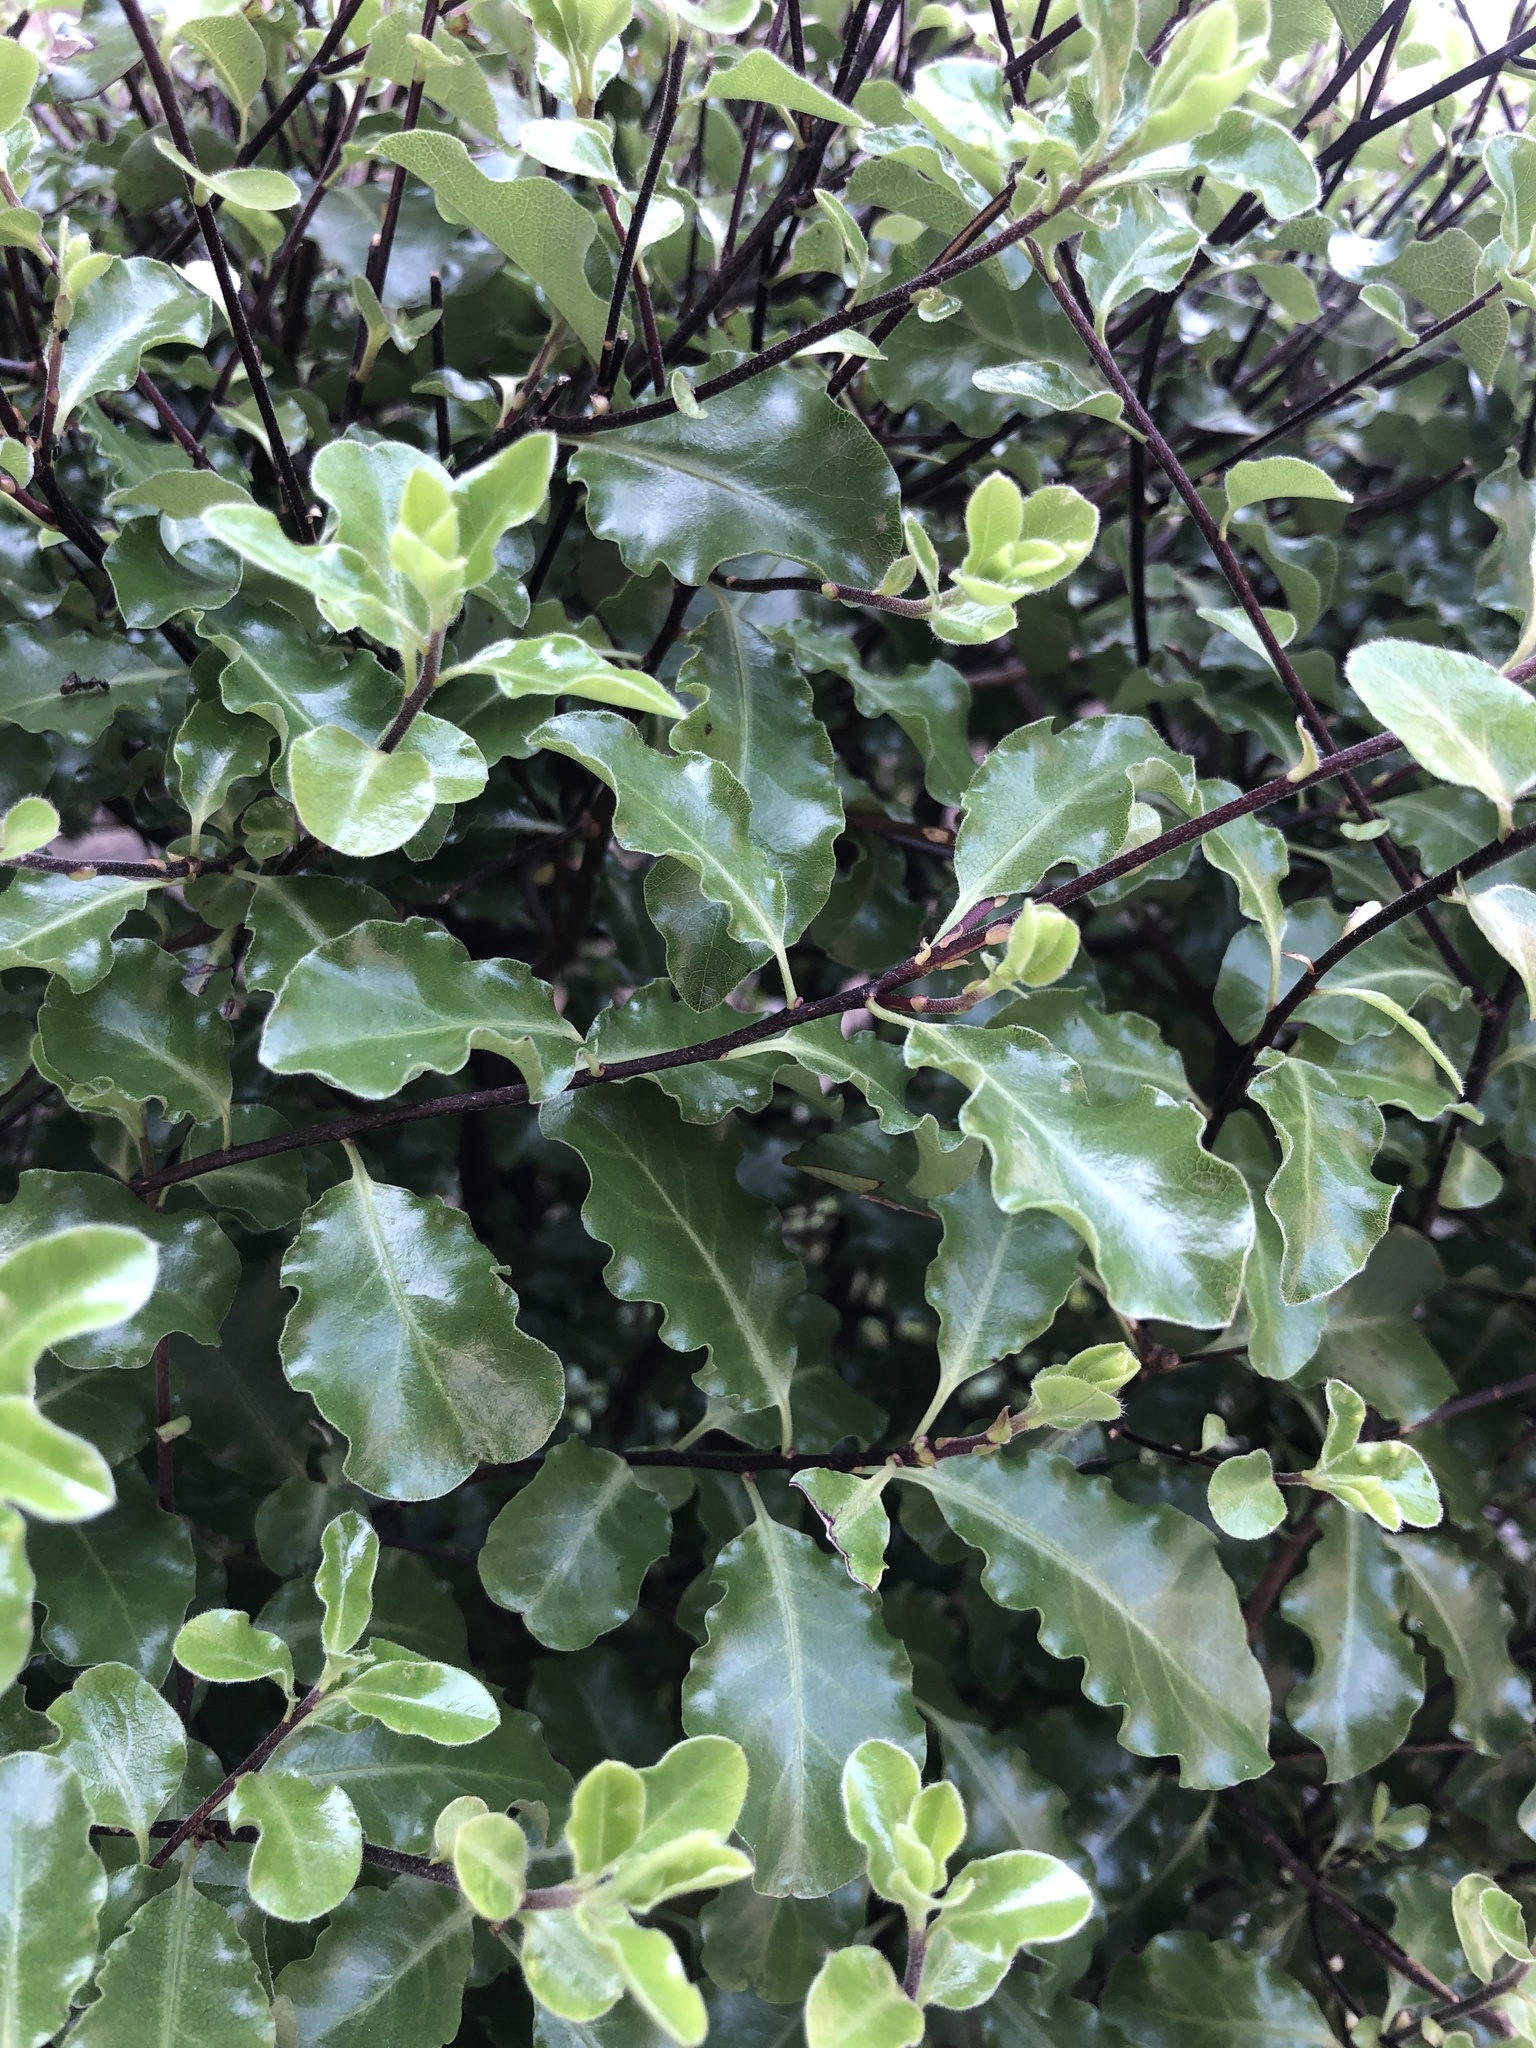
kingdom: Plantae
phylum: Tracheophyta
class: Magnoliopsida
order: Apiales
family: Pittosporaceae
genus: Pittosporum
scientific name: Pittosporum tenuifolium
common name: Kohuhu
